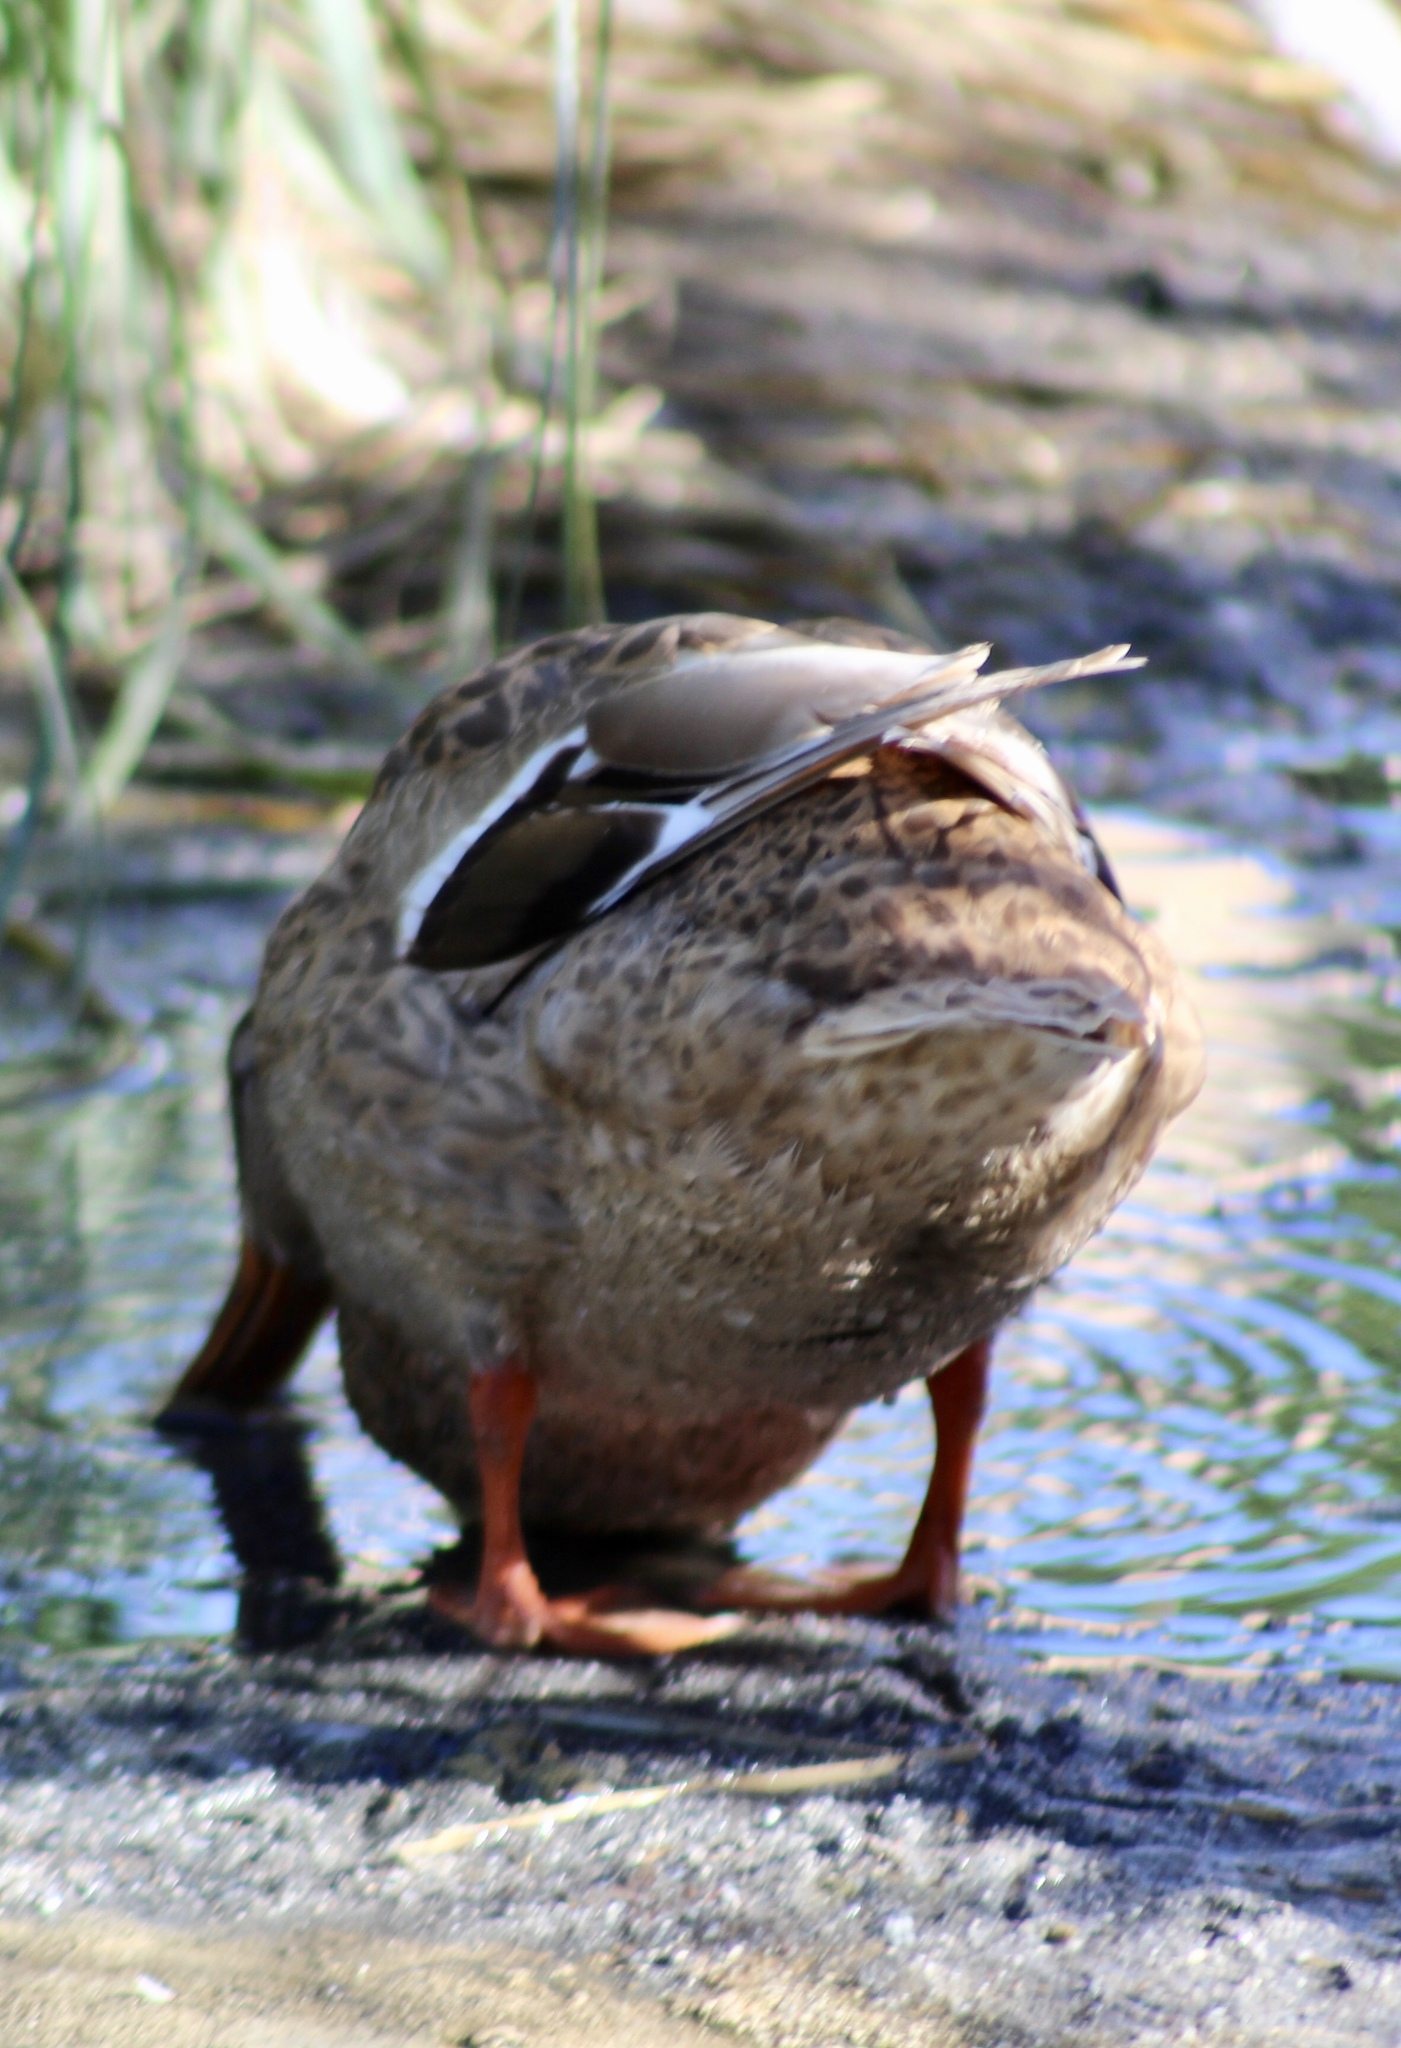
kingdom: Animalia
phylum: Chordata
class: Aves
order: Anseriformes
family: Anatidae
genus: Anas
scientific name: Anas platyrhynchos
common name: Mallard
